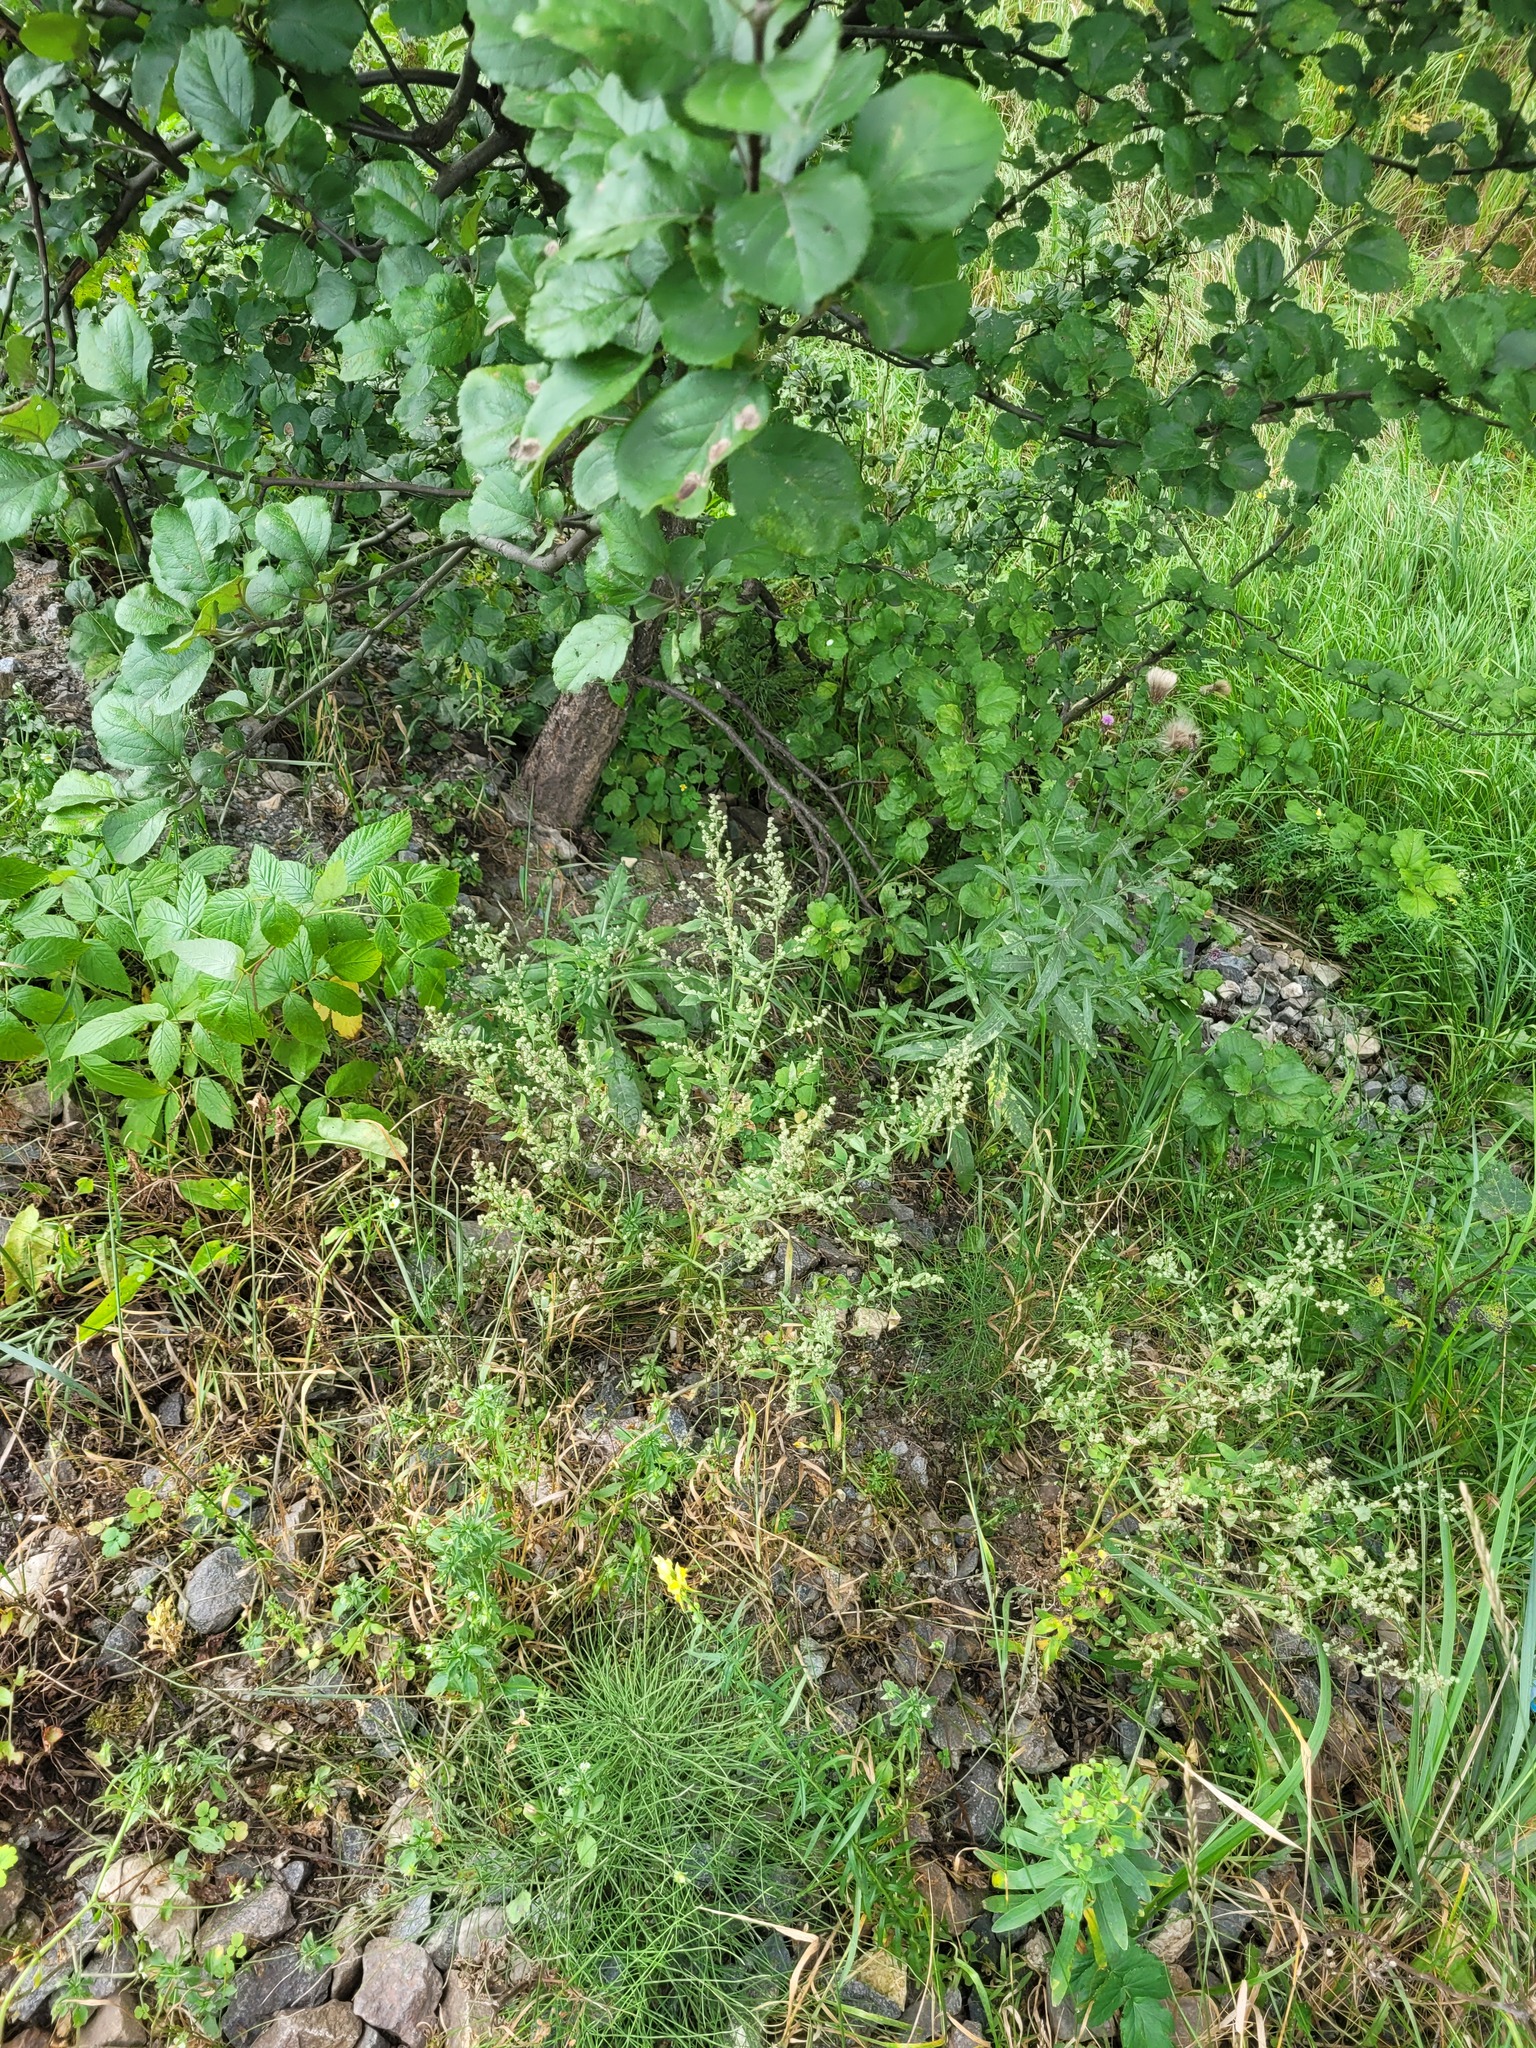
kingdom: Plantae
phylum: Tracheophyta
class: Magnoliopsida
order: Caryophyllales
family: Amaranthaceae
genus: Chenopodium
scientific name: Chenopodium album
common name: Fat-hen
